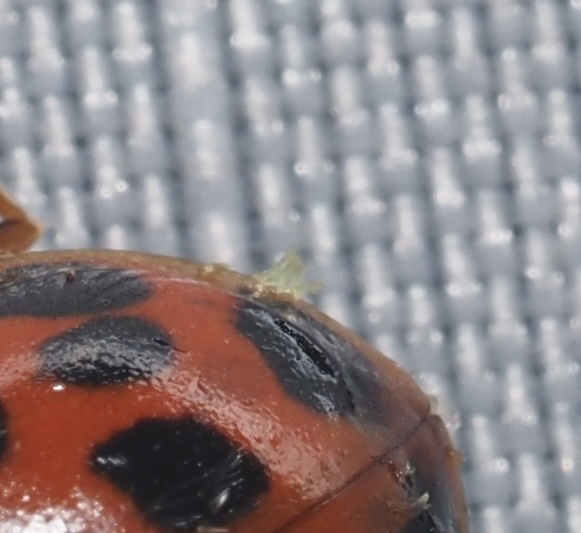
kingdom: Fungi
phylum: Ascomycota
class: Laboulbeniomycetes
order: Laboulbeniales
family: Laboulbeniaceae
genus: Hesperomyces
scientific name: Hesperomyces harmoniae
